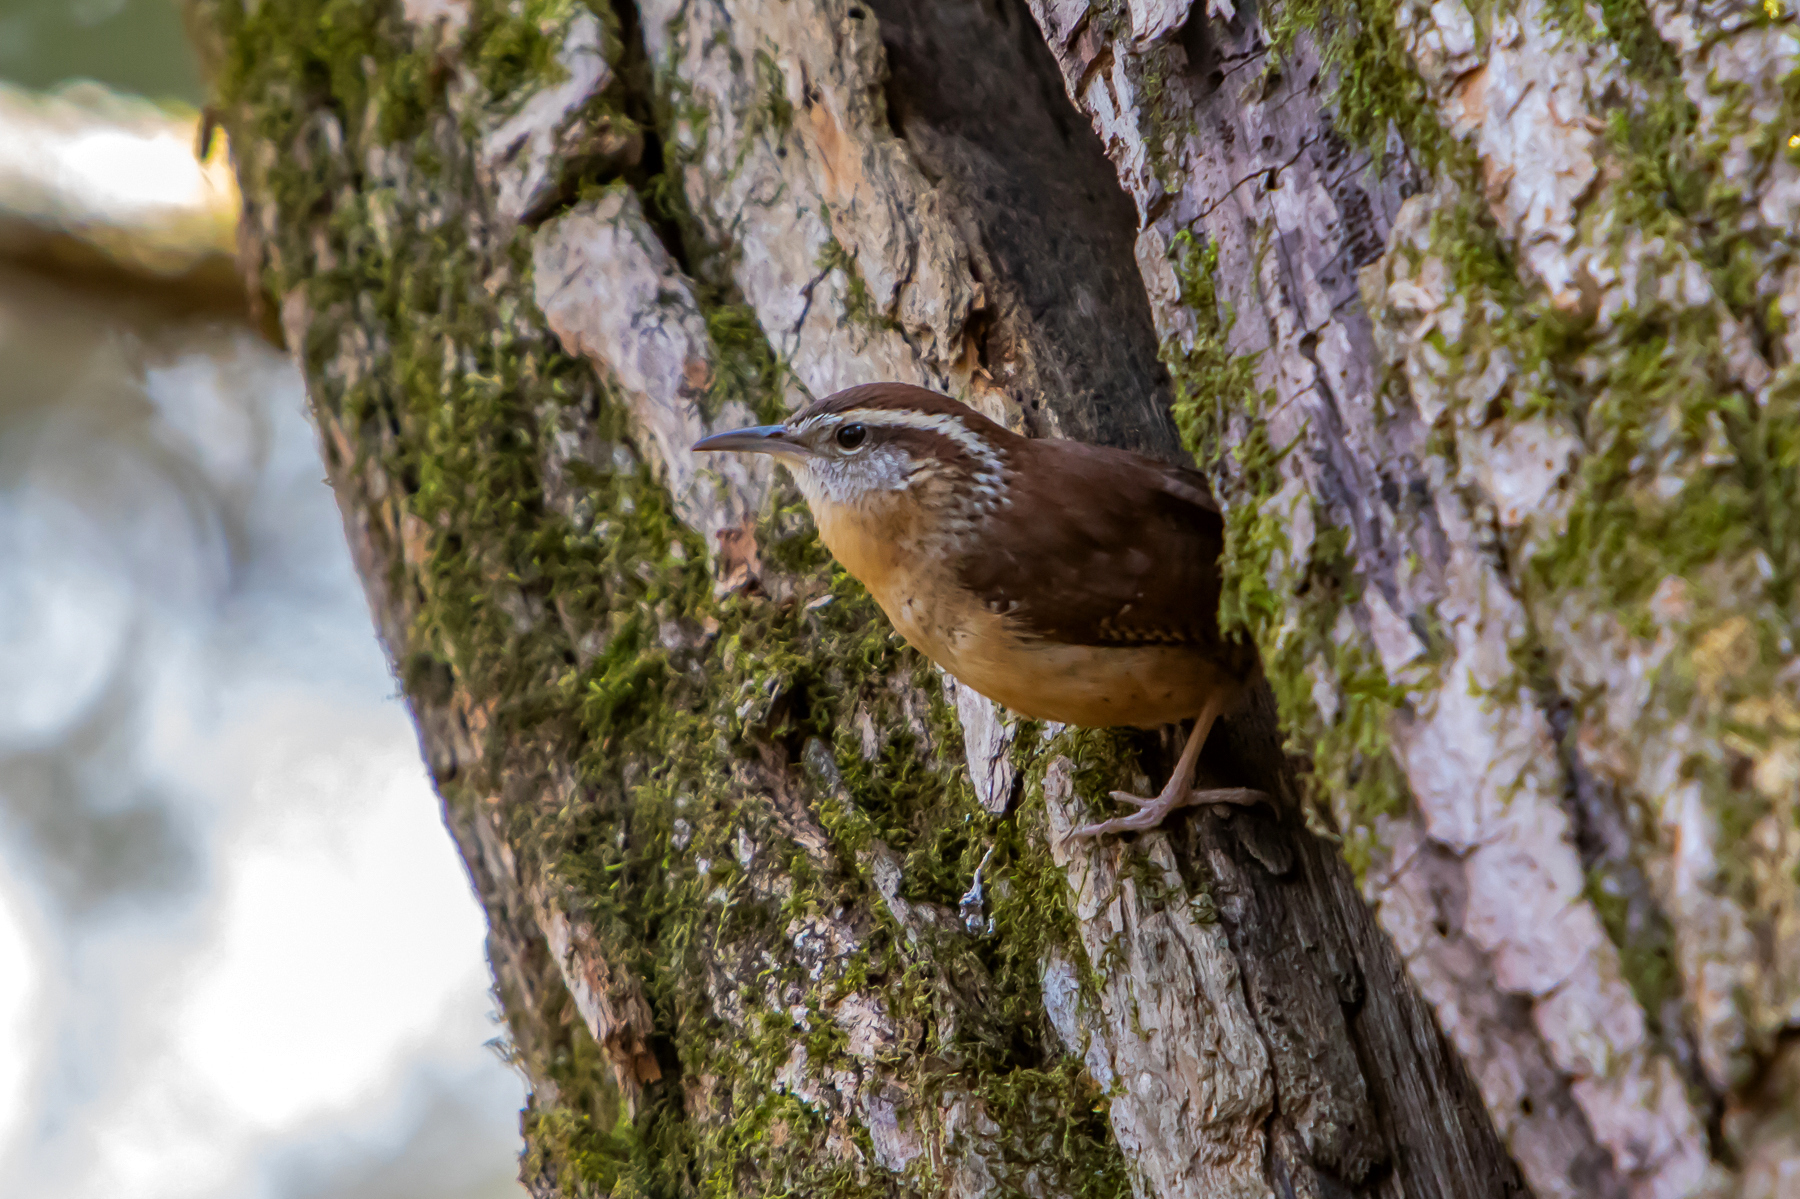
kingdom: Animalia
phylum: Chordata
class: Aves
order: Passeriformes
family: Troglodytidae
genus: Thryothorus
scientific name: Thryothorus ludovicianus
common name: Carolina wren
